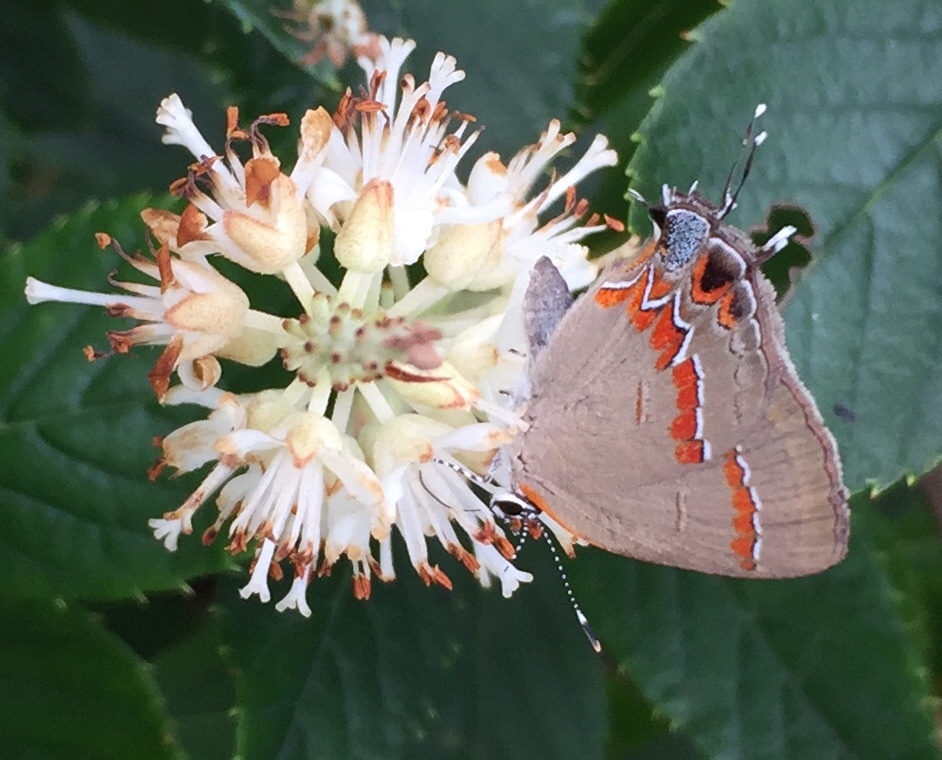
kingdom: Animalia
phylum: Arthropoda
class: Insecta
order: Lepidoptera
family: Lycaenidae
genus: Calycopis
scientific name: Calycopis cecrops
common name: Red-banded hairstreak
